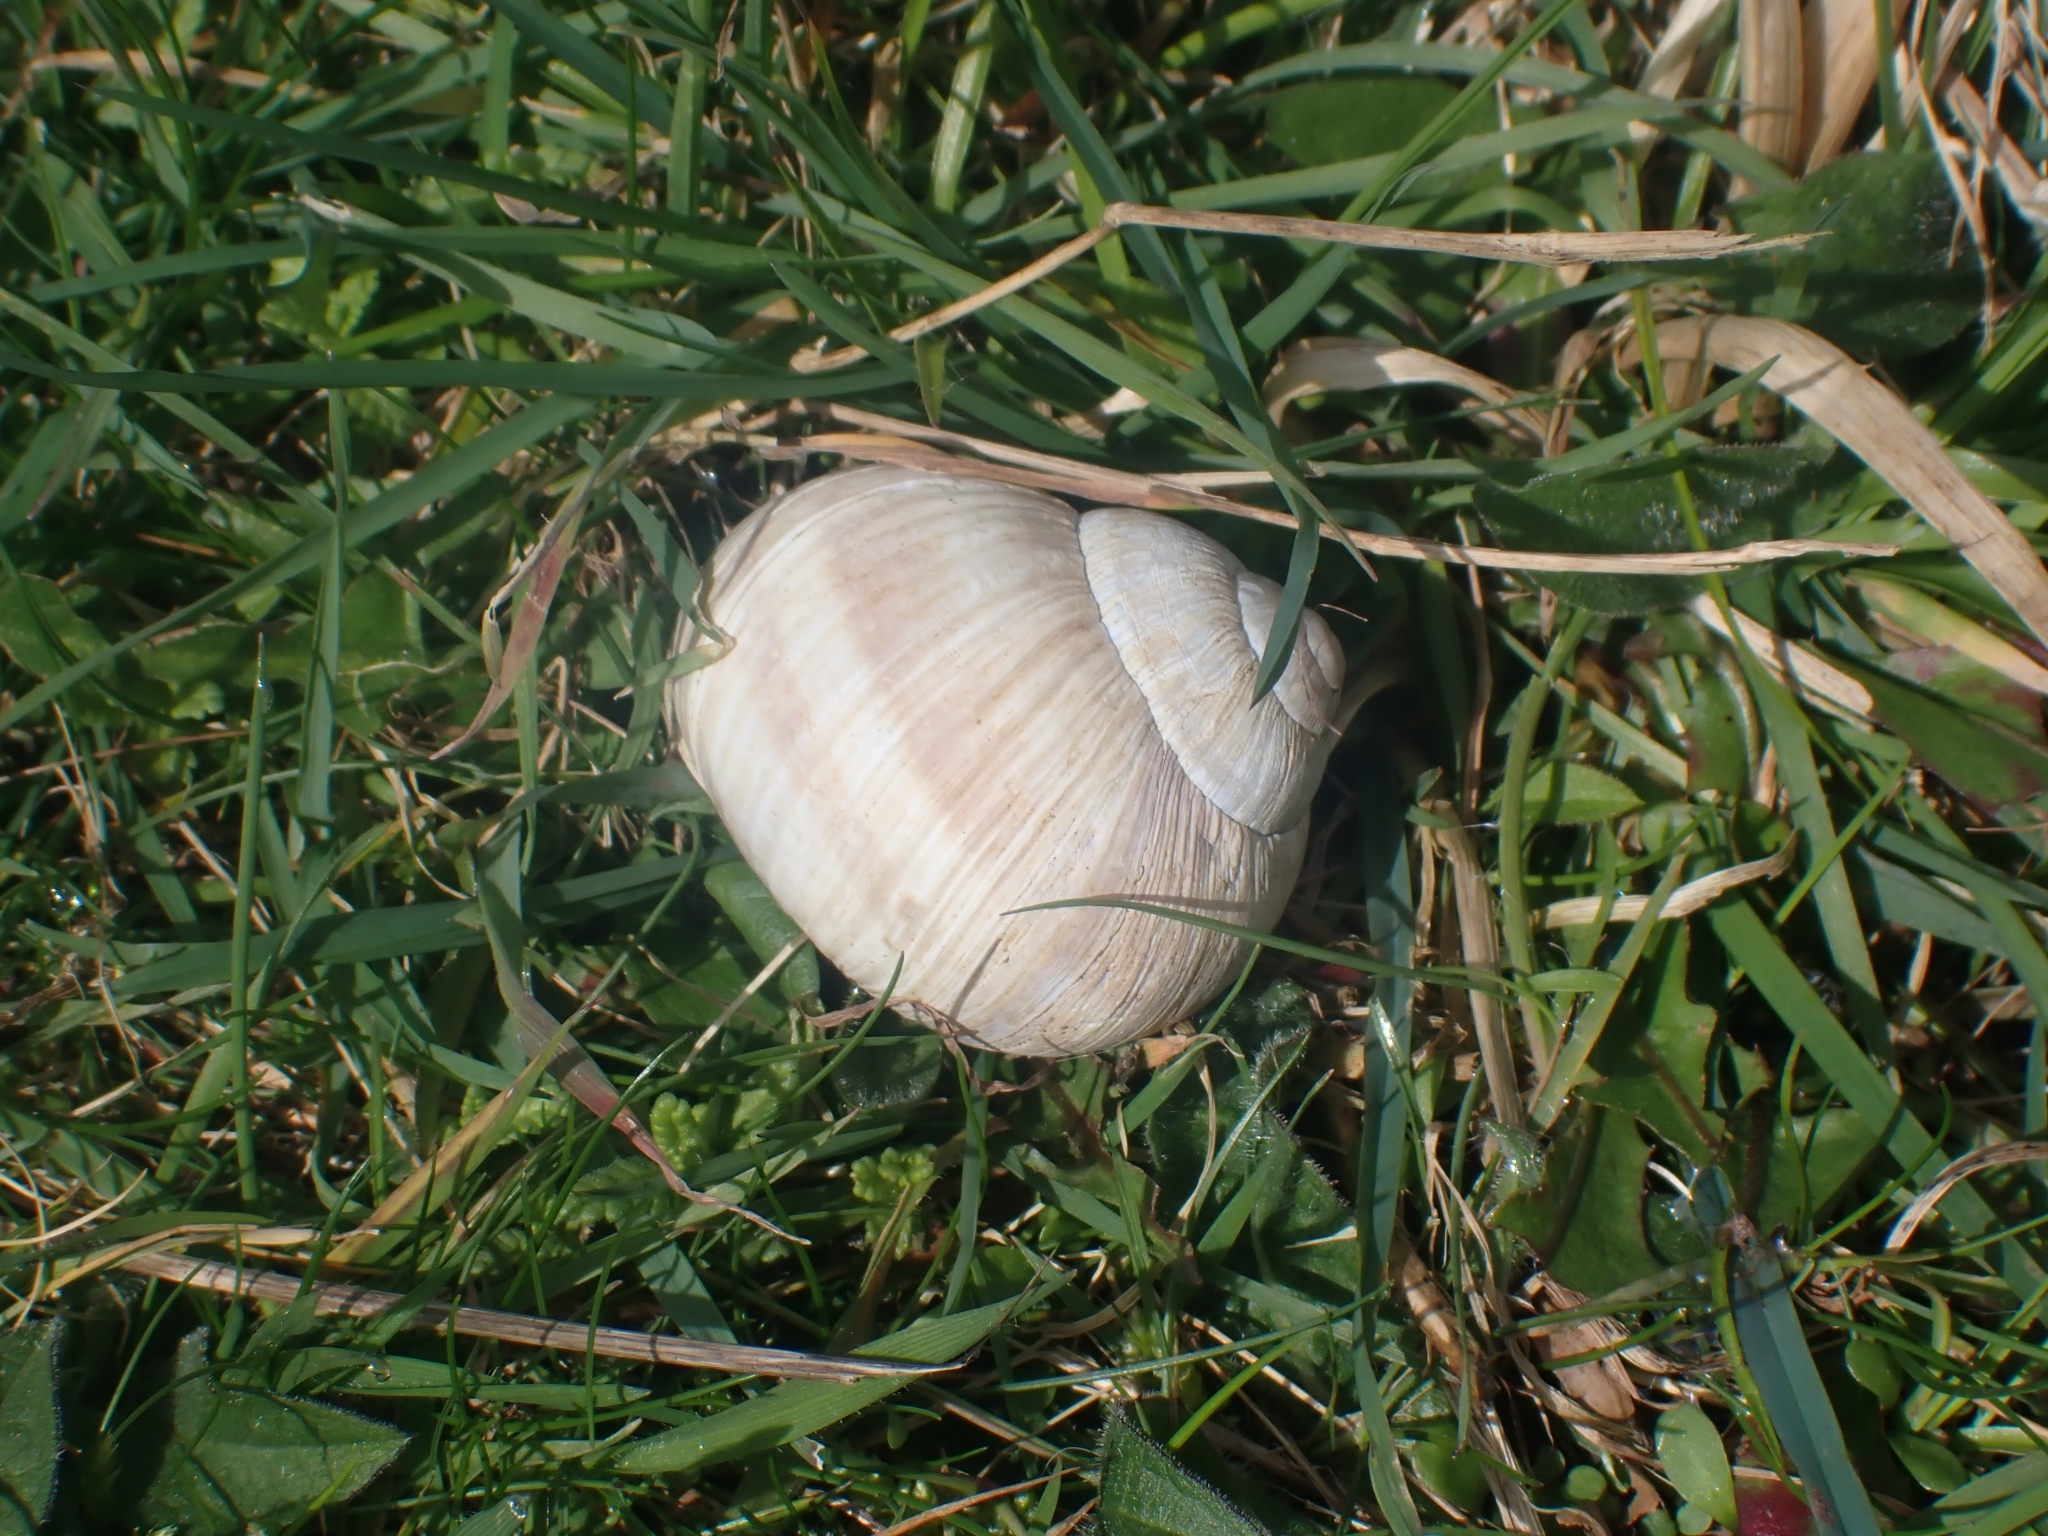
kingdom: Animalia
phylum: Mollusca
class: Gastropoda
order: Stylommatophora
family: Helicidae
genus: Helix
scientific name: Helix pomatia
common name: Roman snail
